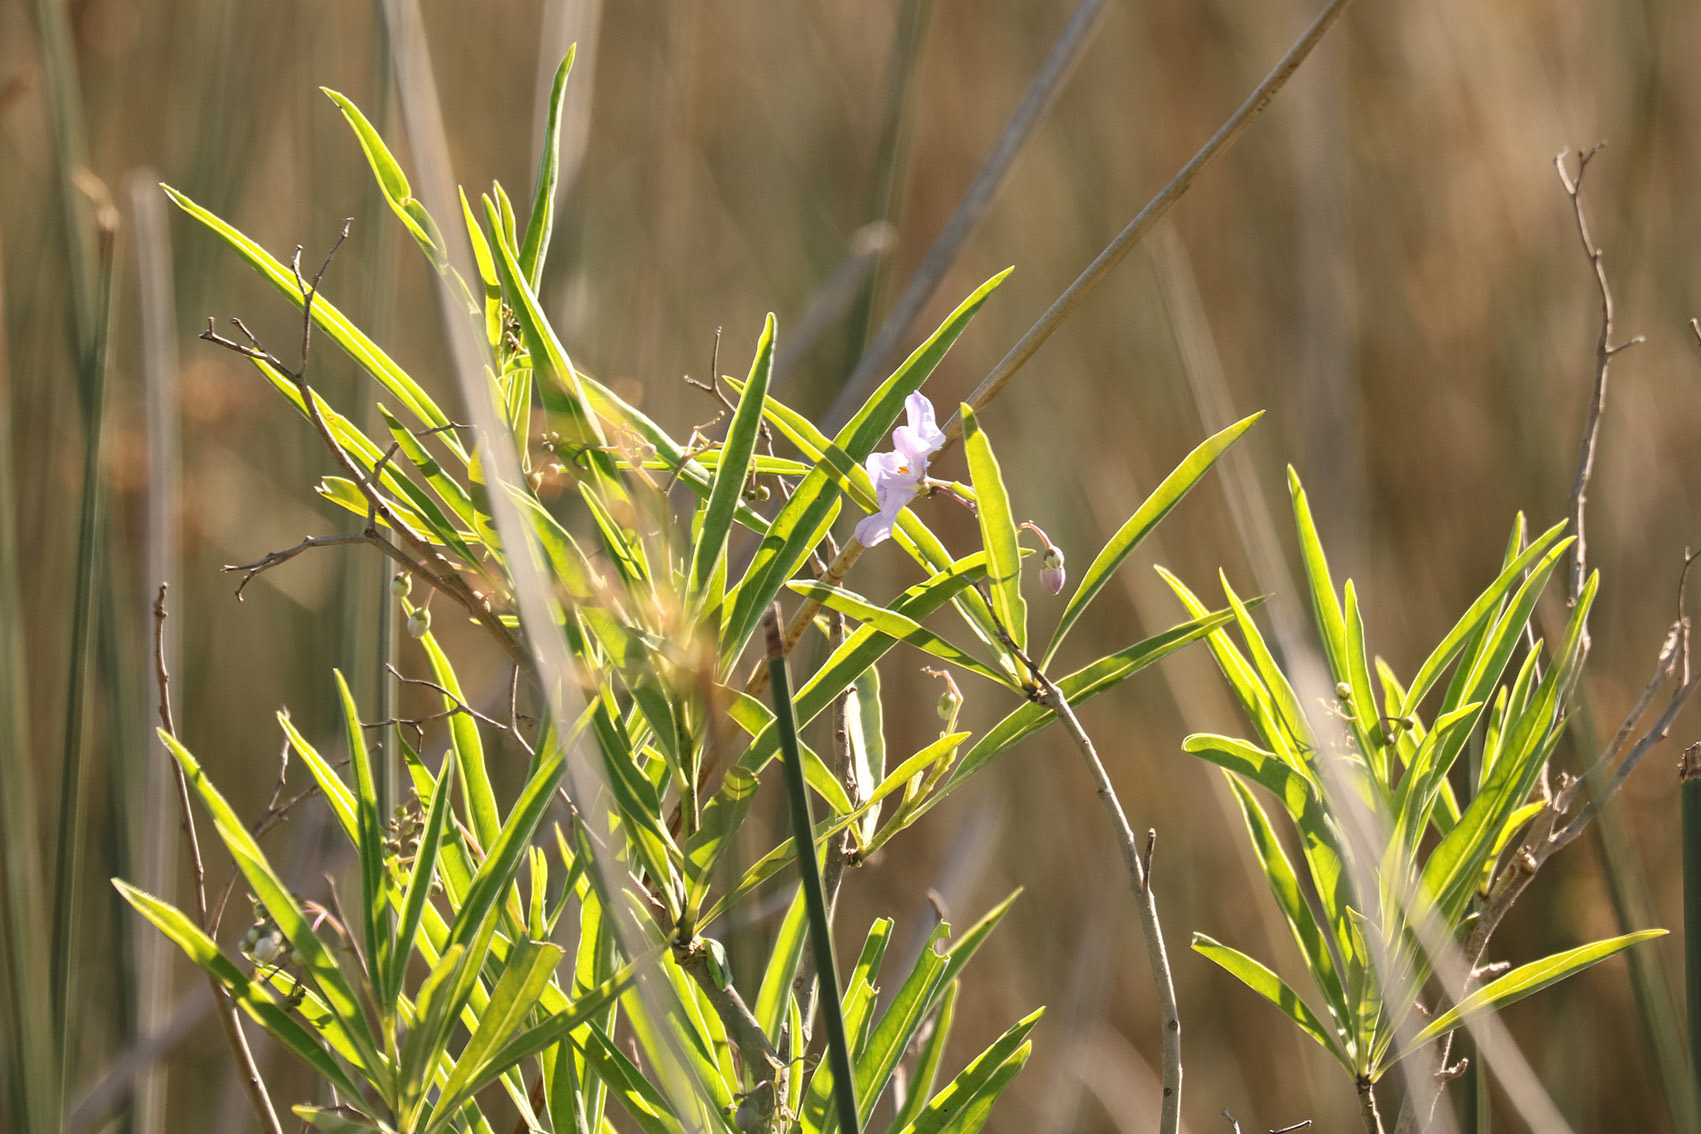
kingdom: Plantae
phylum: Tracheophyta
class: Magnoliopsida
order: Solanales
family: Solanaceae
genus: Solanum
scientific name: Solanum glaucophyllum
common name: Waxyleaf nightshade
